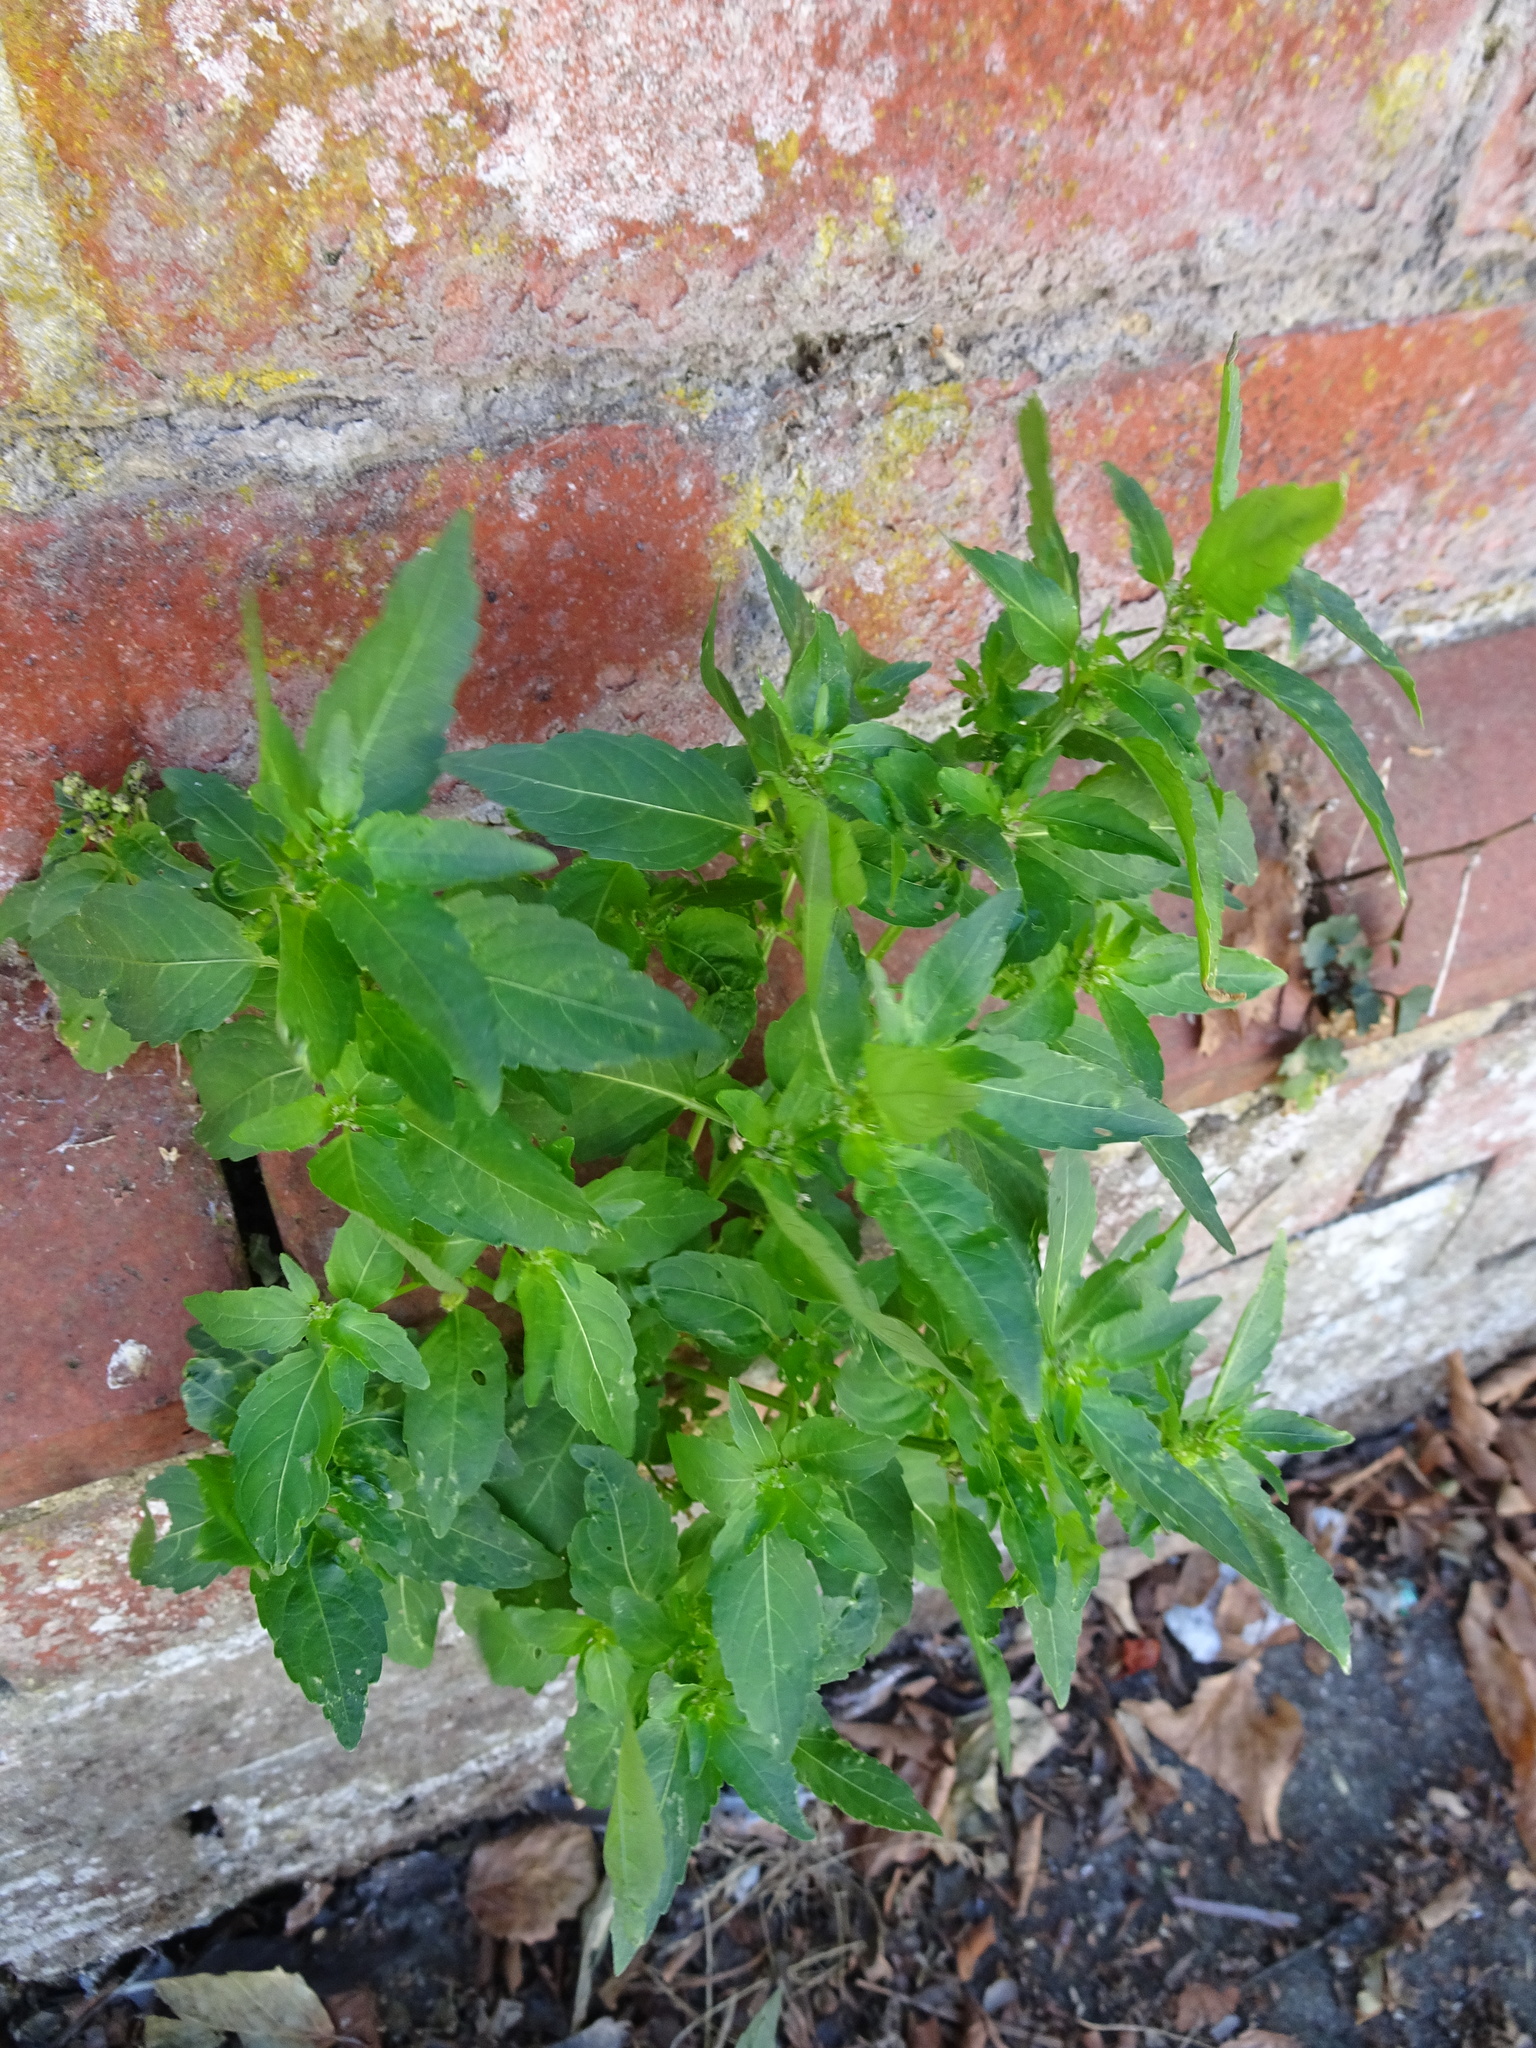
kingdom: Plantae
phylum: Tracheophyta
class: Magnoliopsida
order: Malpighiales
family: Euphorbiaceae
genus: Mercurialis
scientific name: Mercurialis annua
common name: Annual mercury
